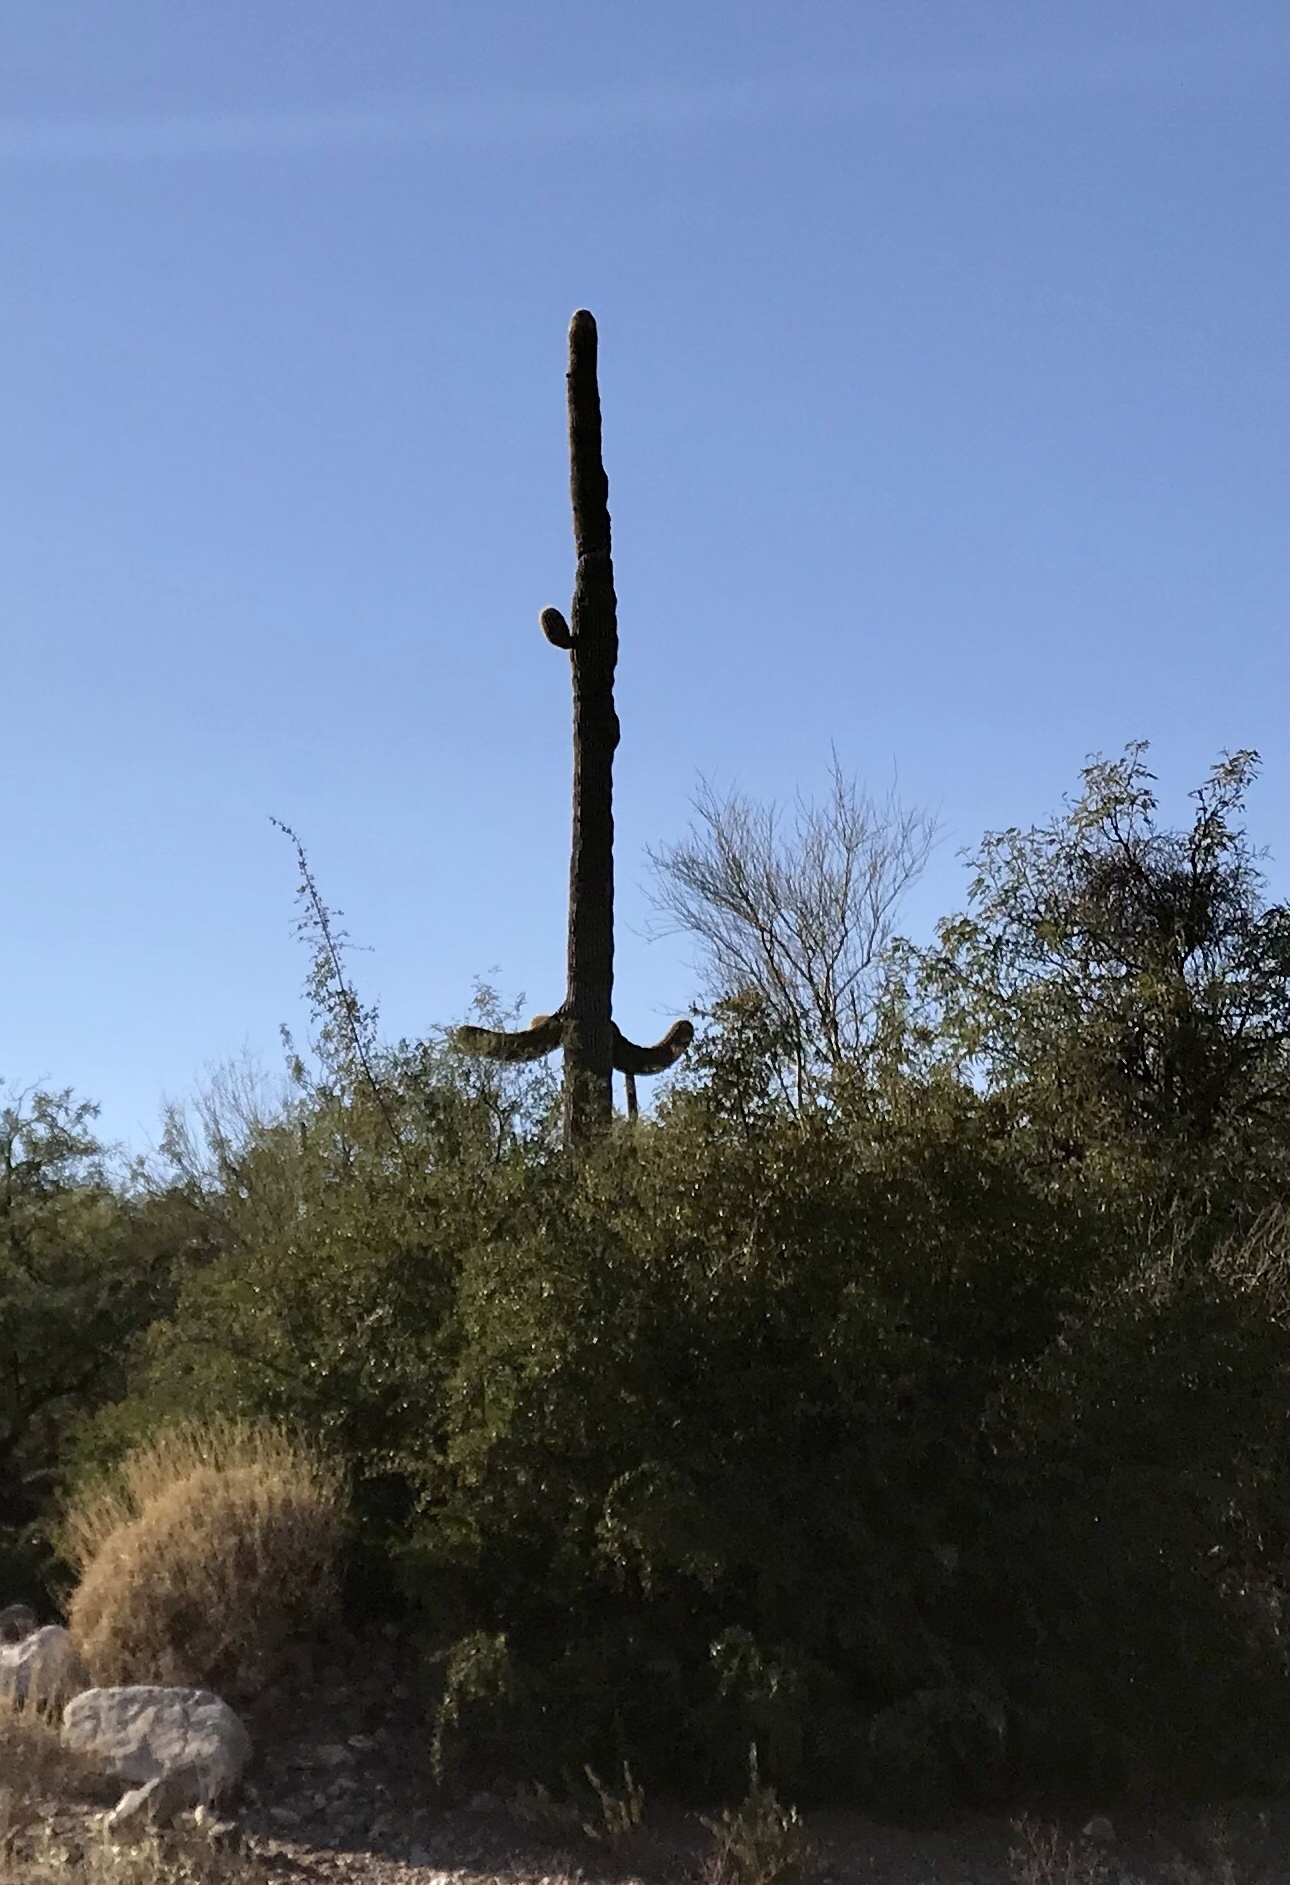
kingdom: Plantae
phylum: Tracheophyta
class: Magnoliopsida
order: Caryophyllales
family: Cactaceae
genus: Carnegiea
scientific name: Carnegiea gigantea
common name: Saguaro
